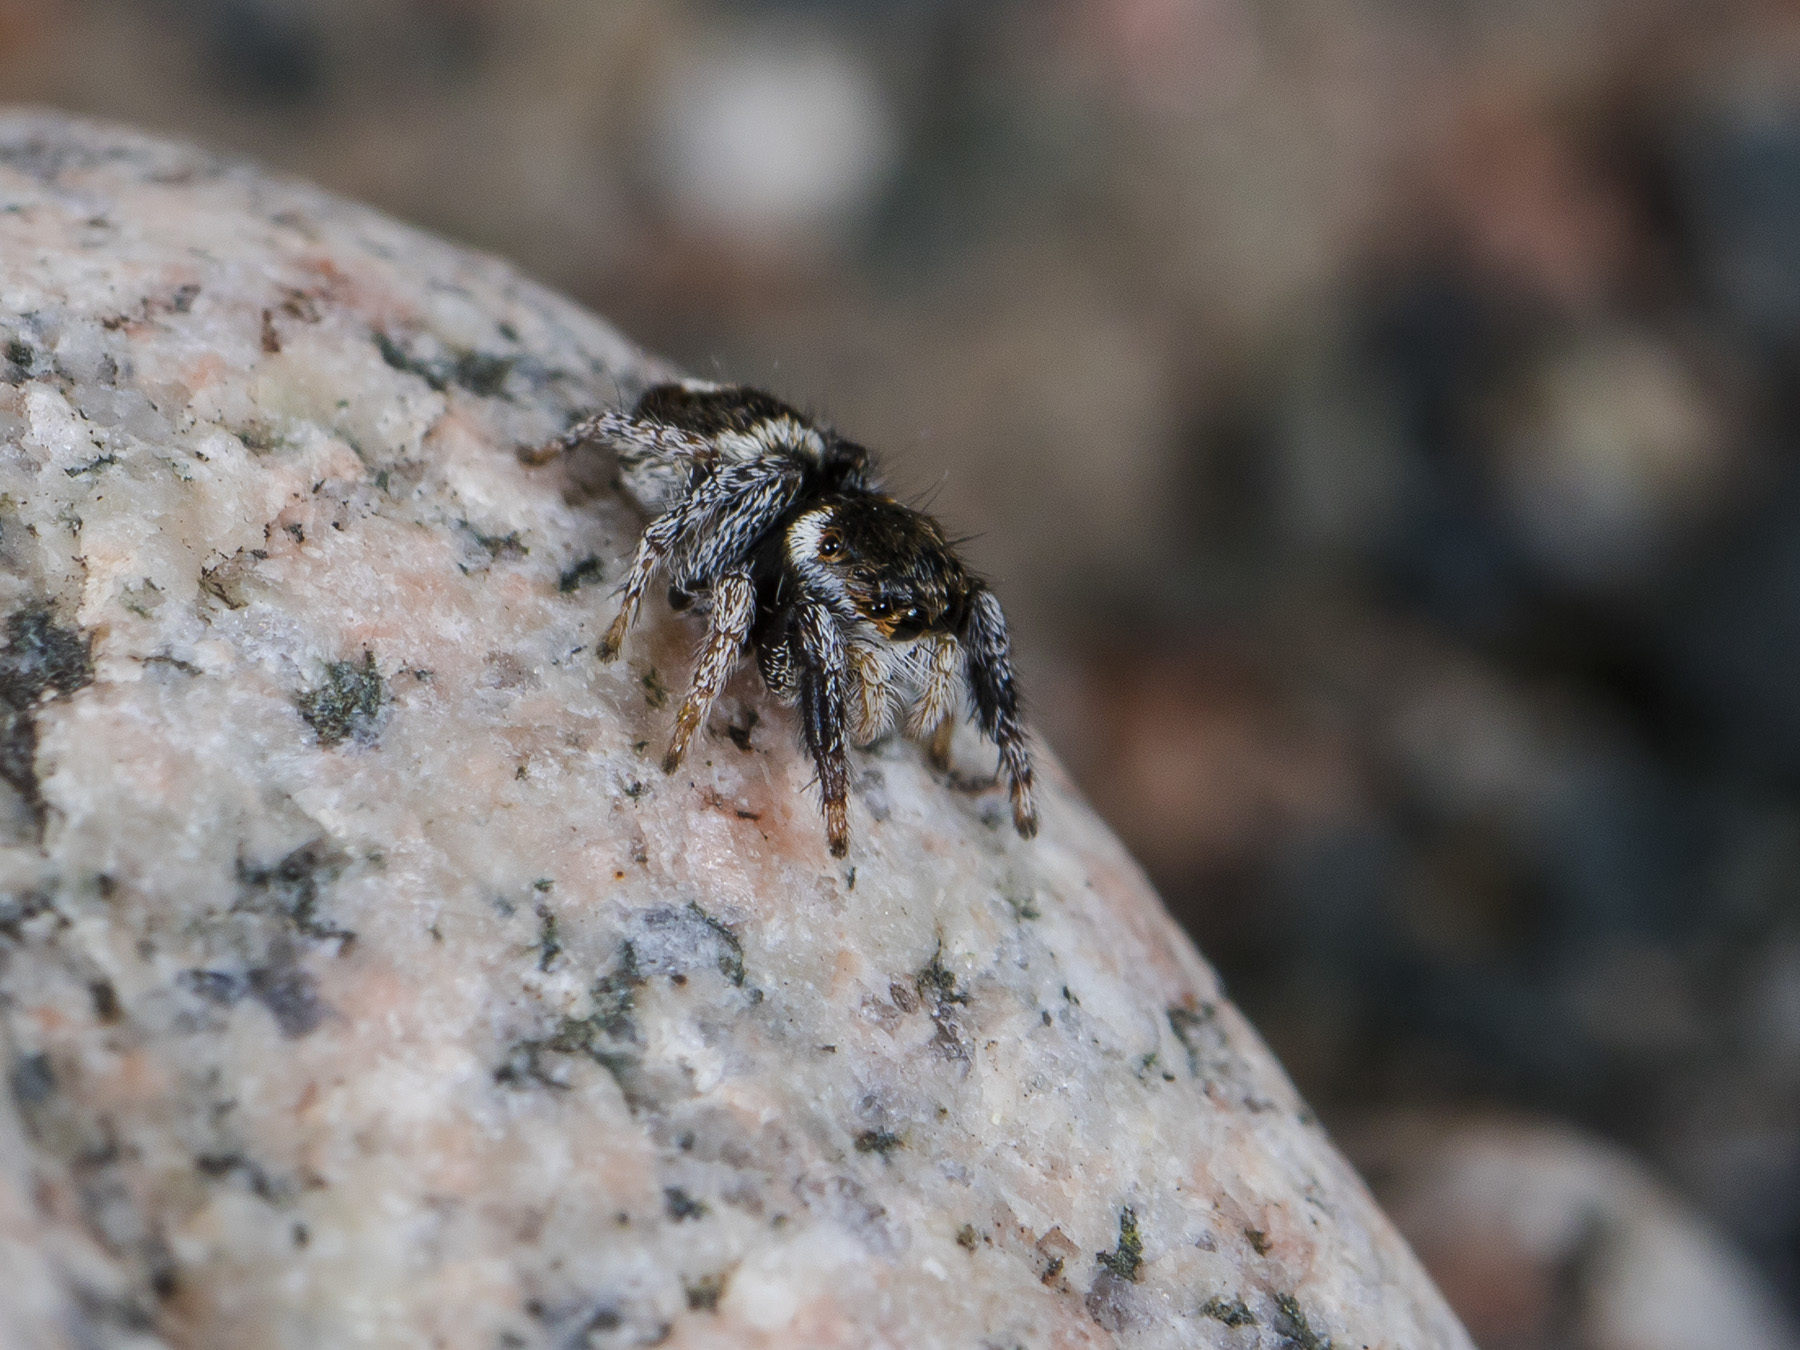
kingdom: Animalia
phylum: Arthropoda
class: Arachnida
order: Araneae
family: Salticidae
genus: Pellenes
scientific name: Pellenes geniculatus
